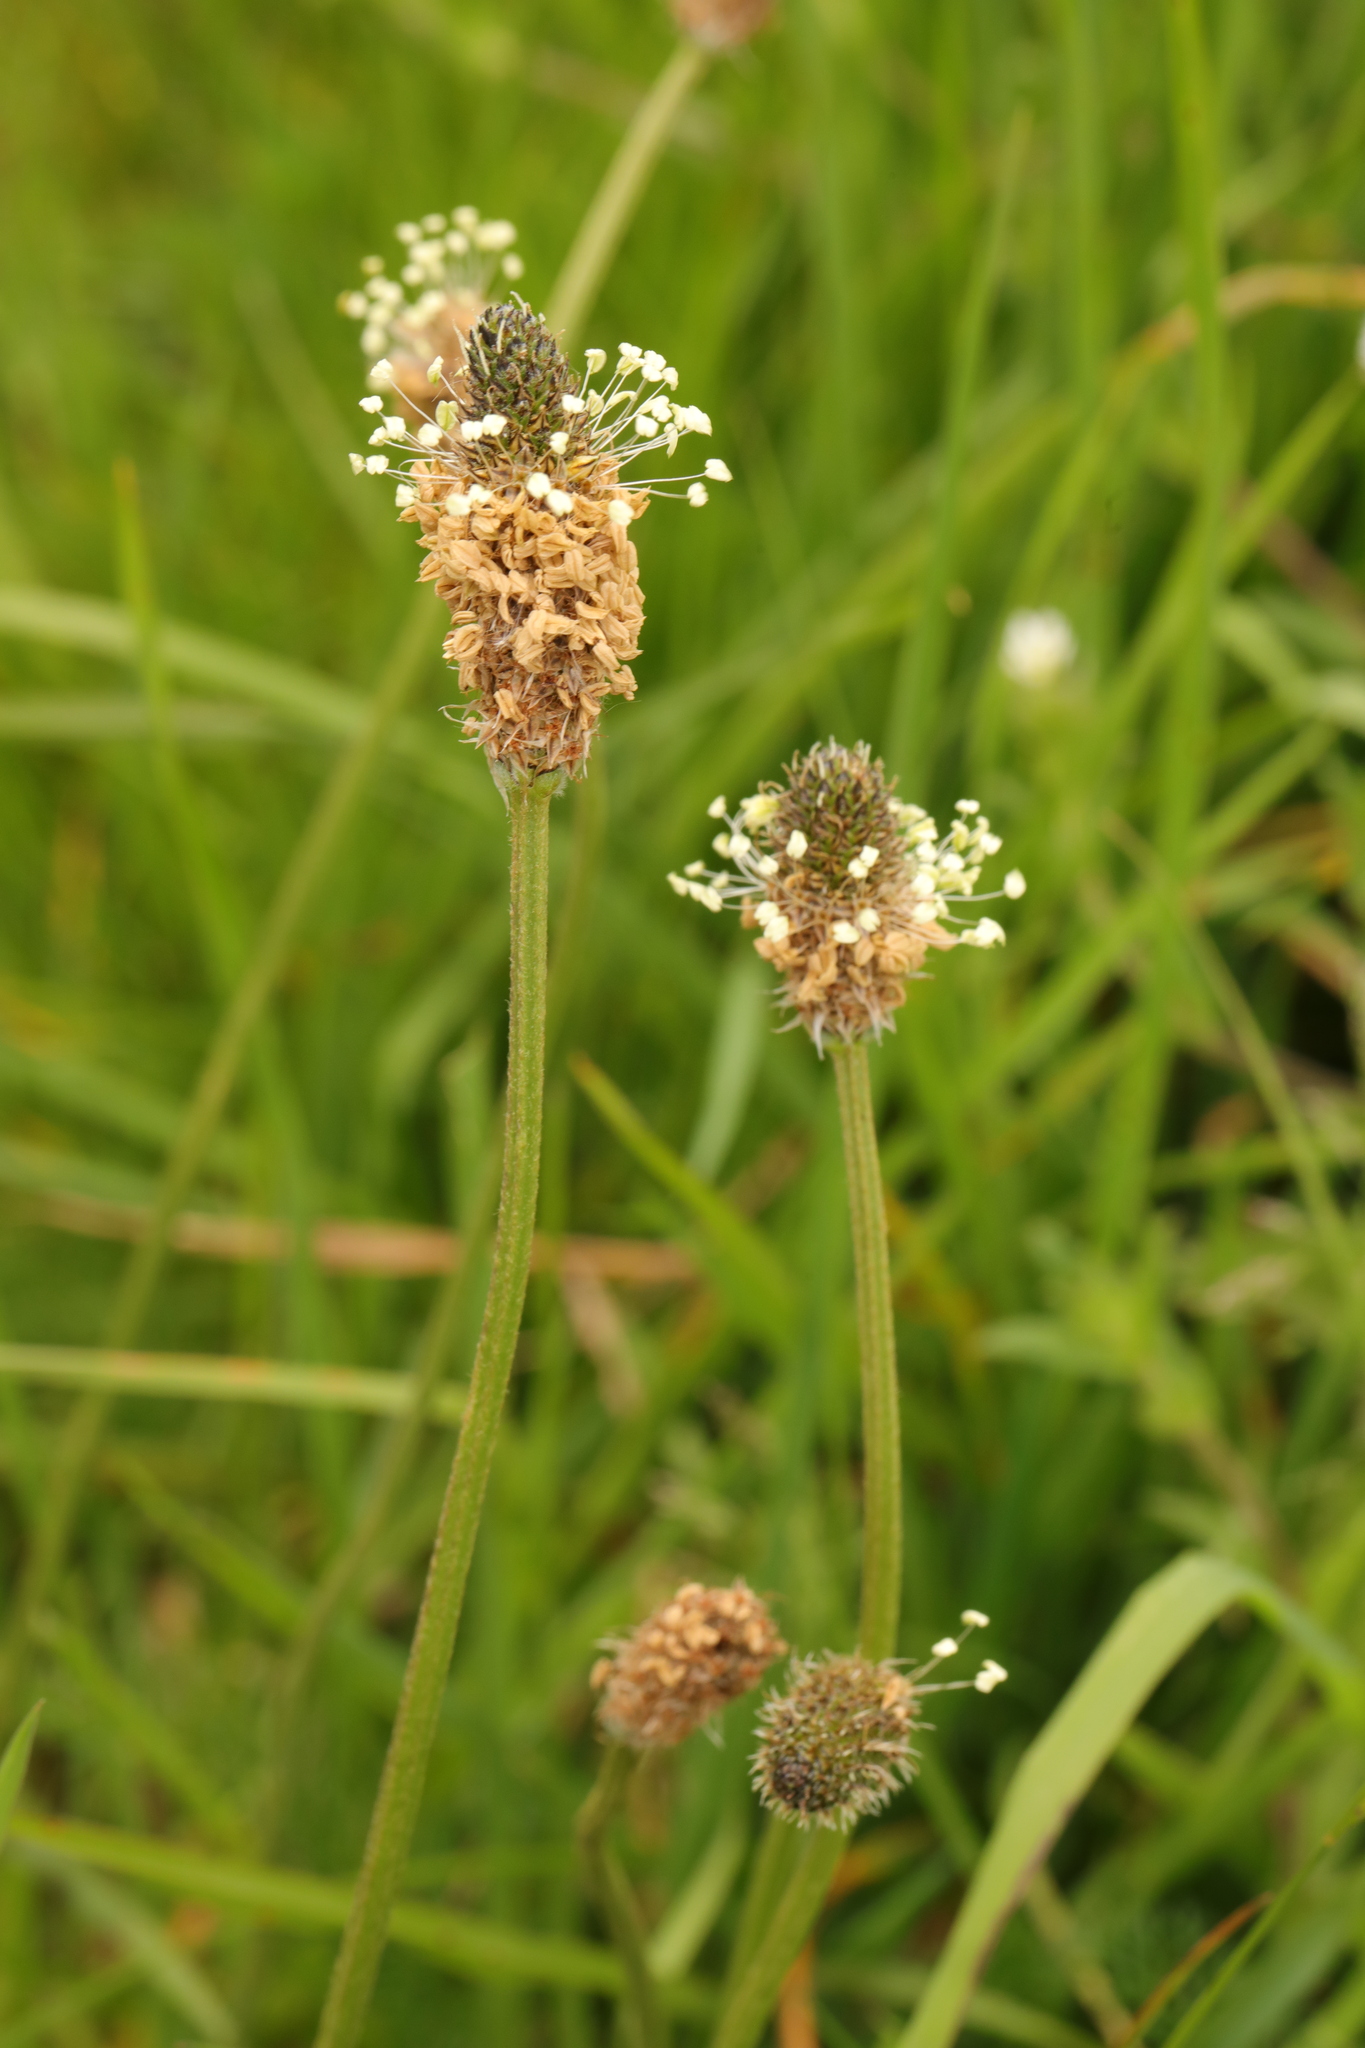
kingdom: Plantae
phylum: Tracheophyta
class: Magnoliopsida
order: Lamiales
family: Plantaginaceae
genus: Plantago
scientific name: Plantago lanceolata
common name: Ribwort plantain
